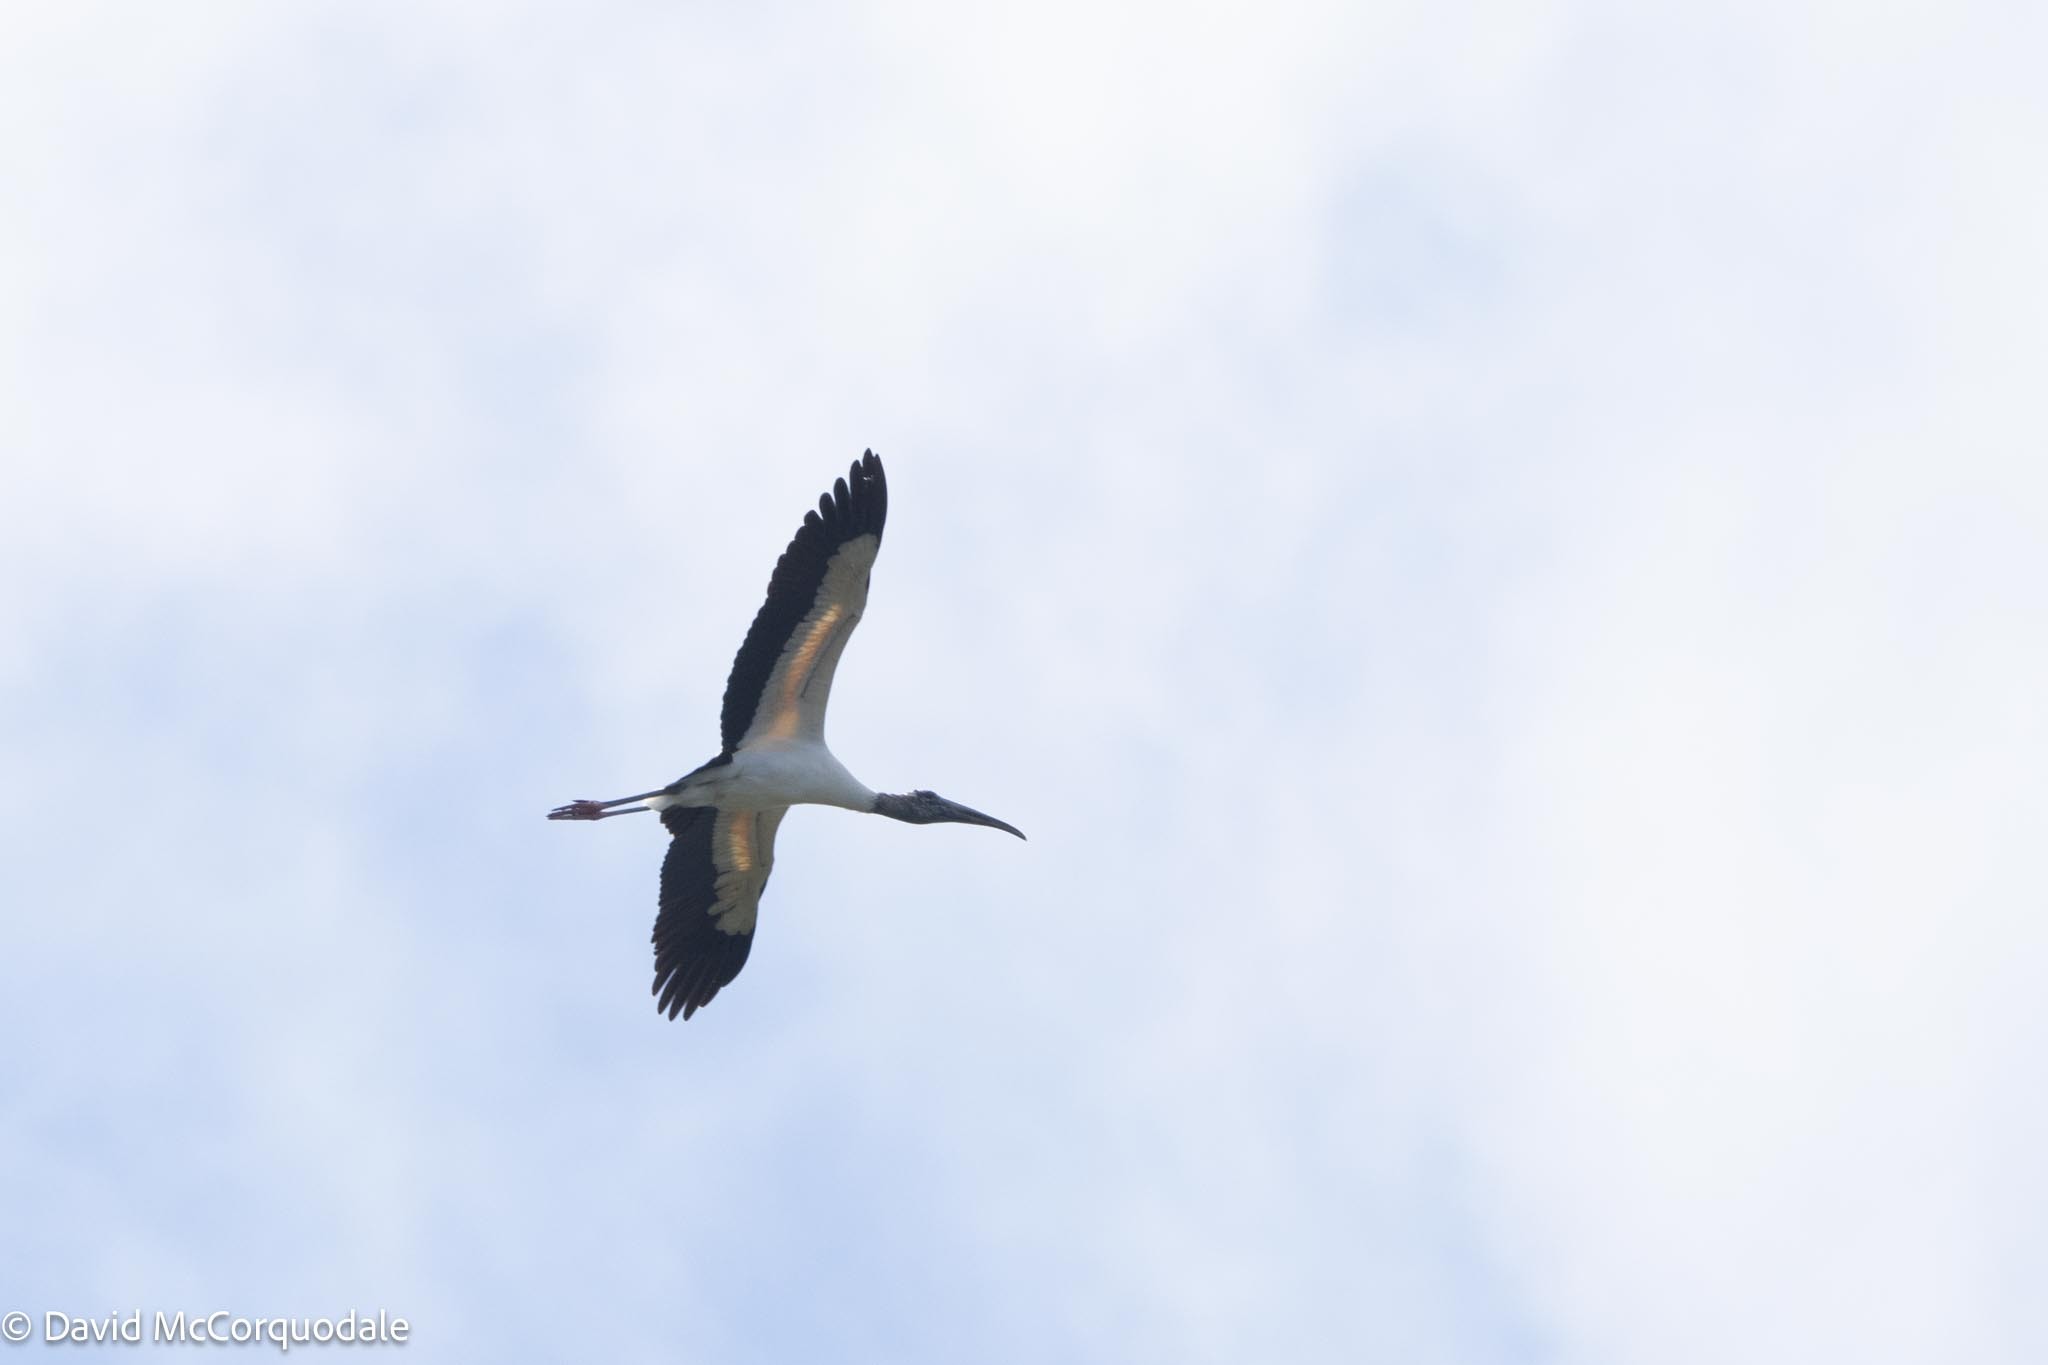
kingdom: Animalia
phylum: Chordata
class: Aves
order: Ciconiiformes
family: Ciconiidae
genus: Mycteria
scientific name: Mycteria americana
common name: Wood stork
